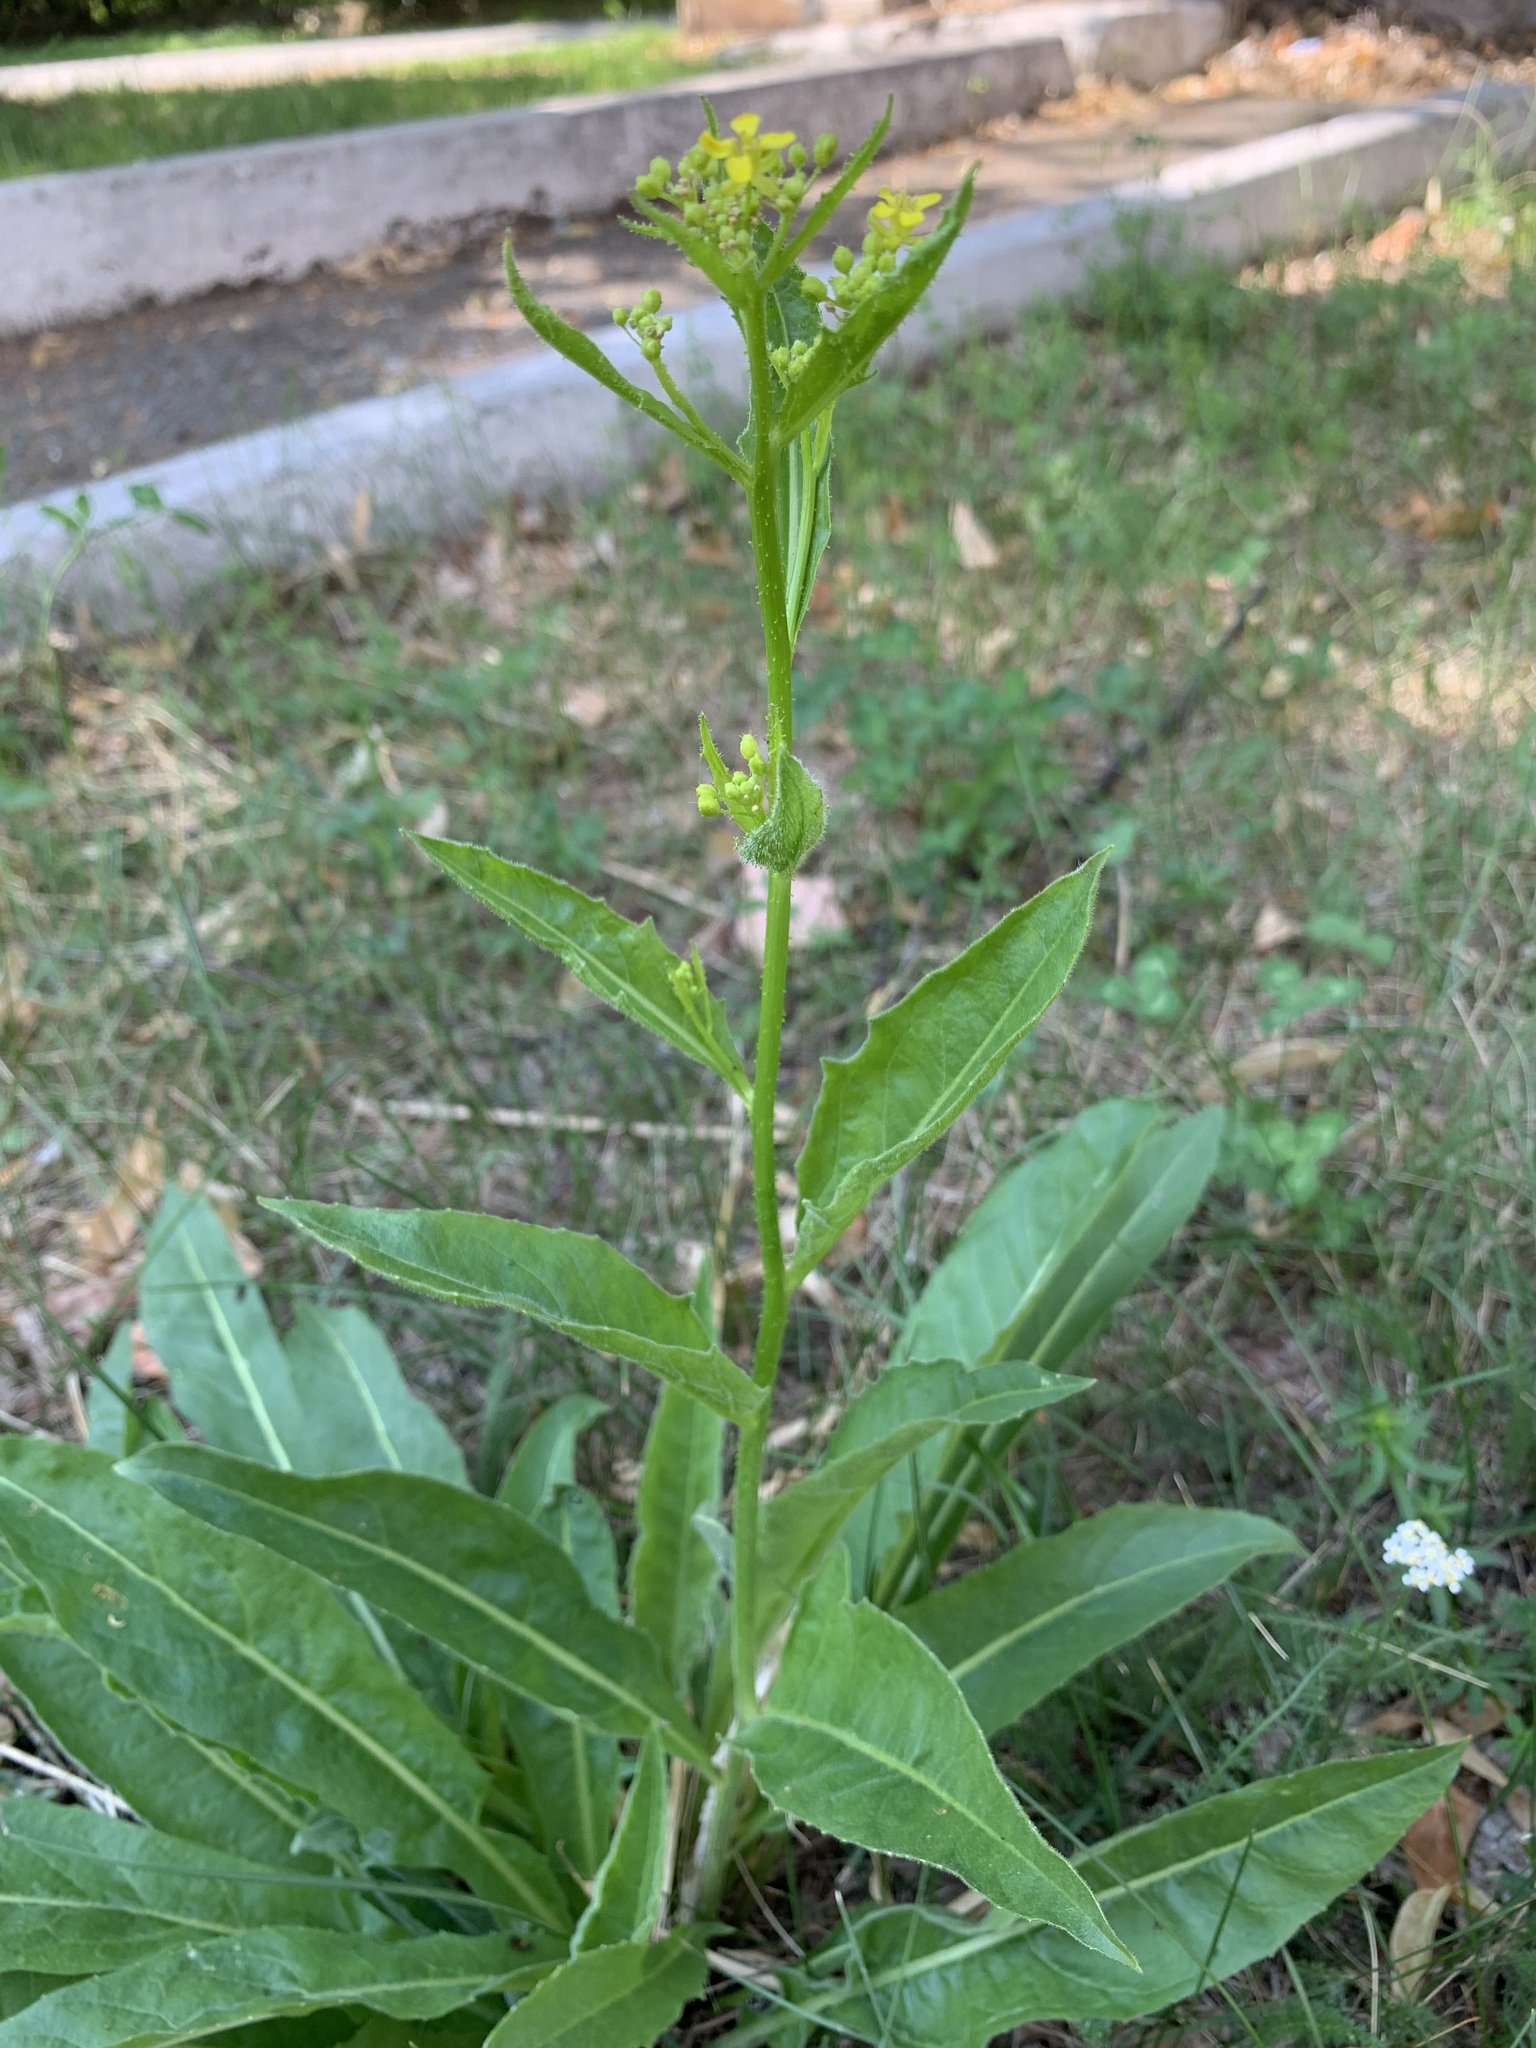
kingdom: Plantae
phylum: Tracheophyta
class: Magnoliopsida
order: Brassicales
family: Brassicaceae
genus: Bunias
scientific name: Bunias orientalis
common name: Warty-cabbage
